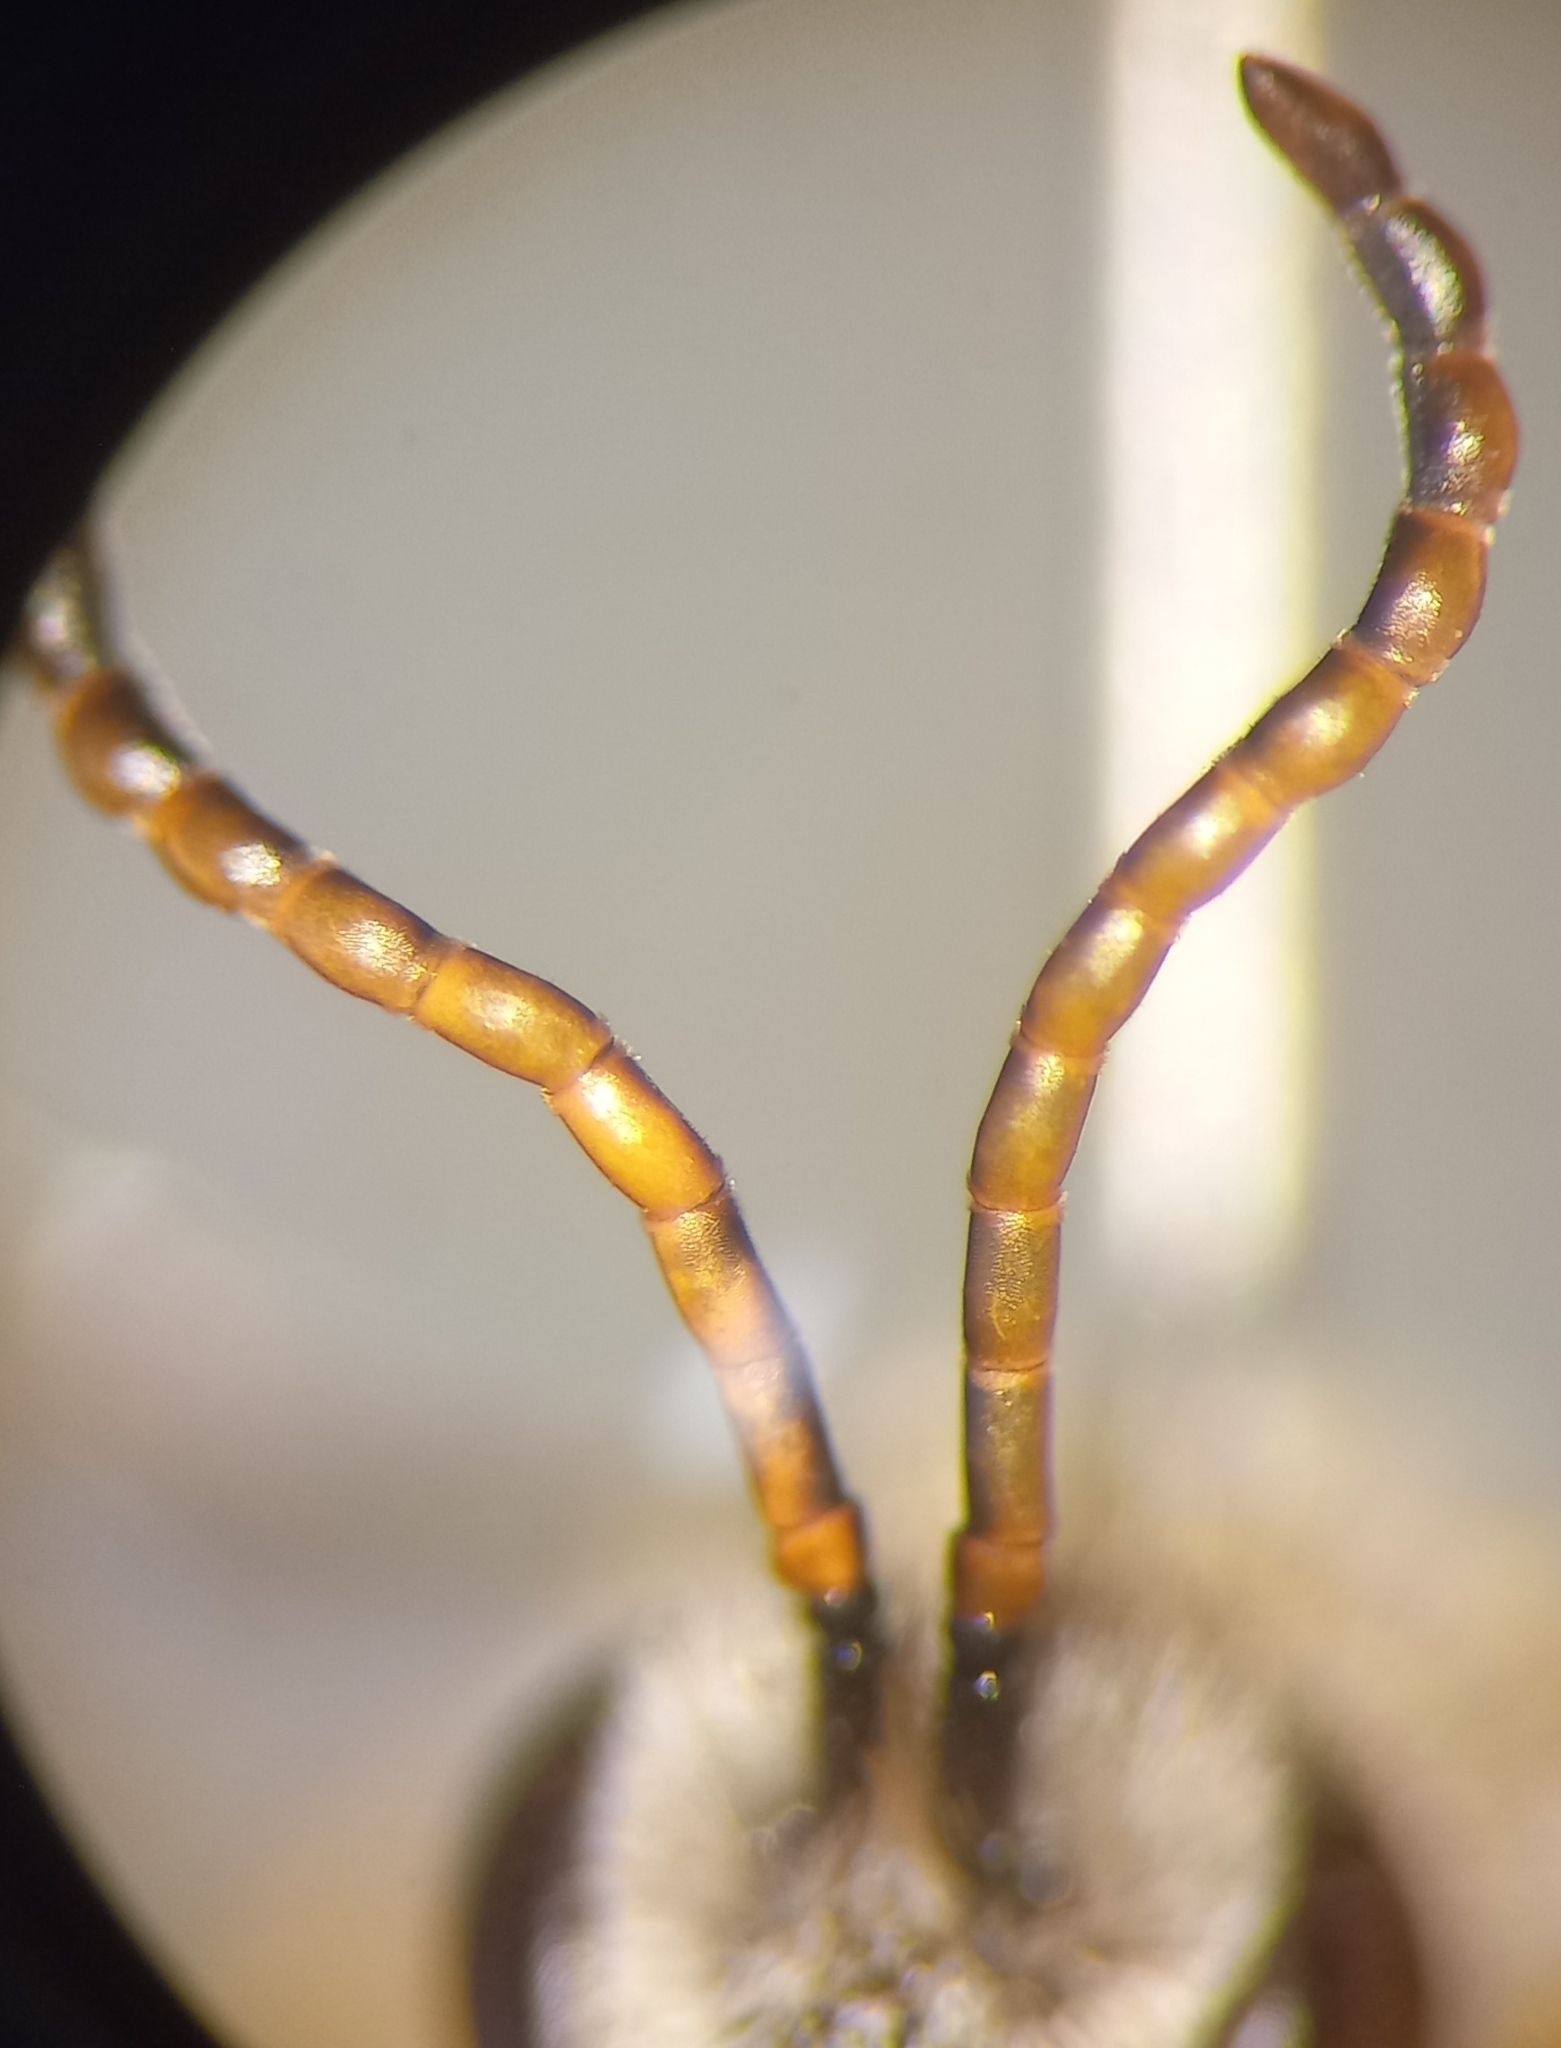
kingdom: Animalia
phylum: Arthropoda
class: Insecta
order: Hymenoptera
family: Halictidae
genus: Halictus
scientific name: Halictus simplex
